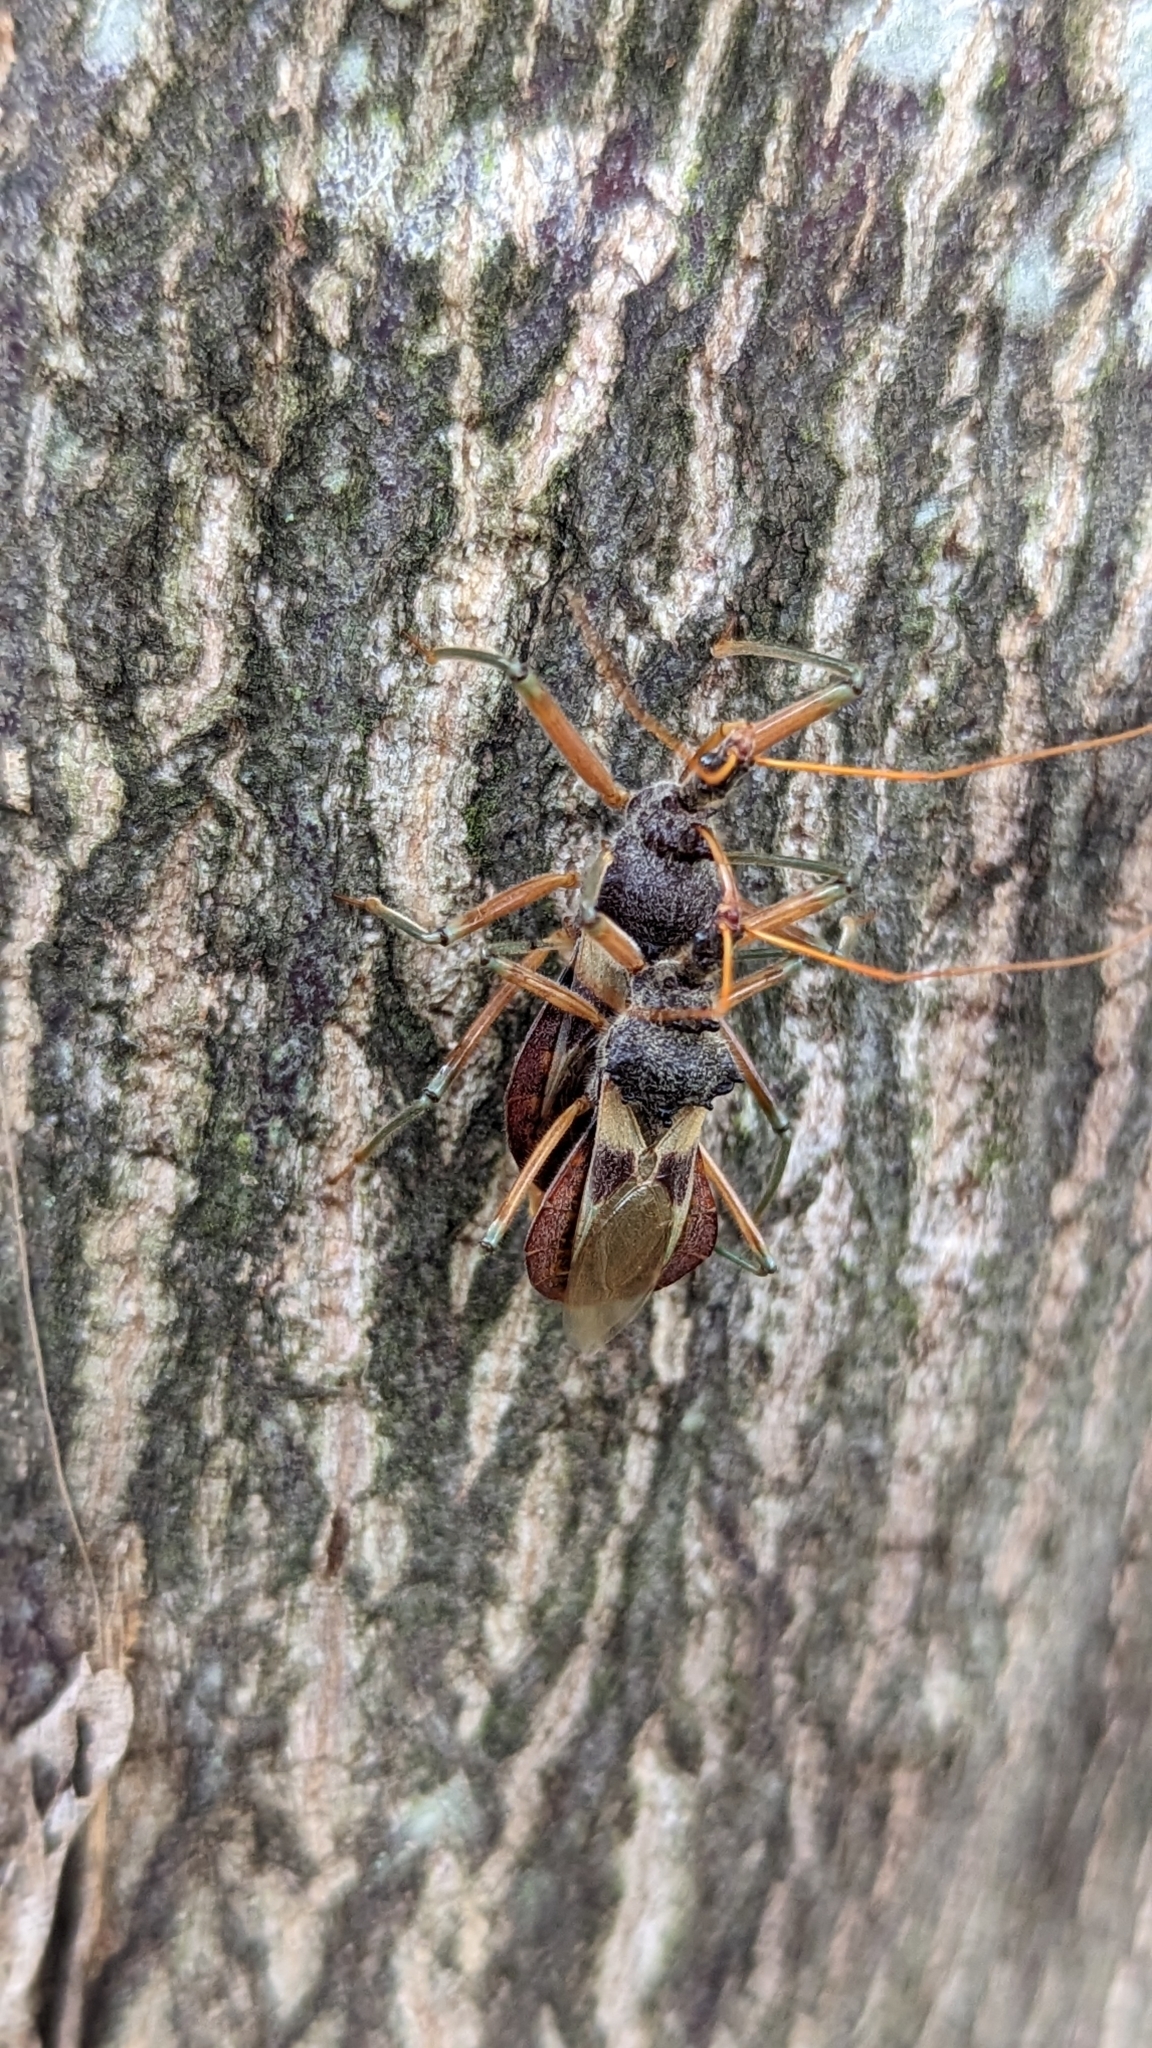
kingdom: Animalia
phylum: Arthropoda
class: Insecta
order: Hemiptera
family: Reduviidae
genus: Pristhesancus
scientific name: Pristhesancus plagipennis
